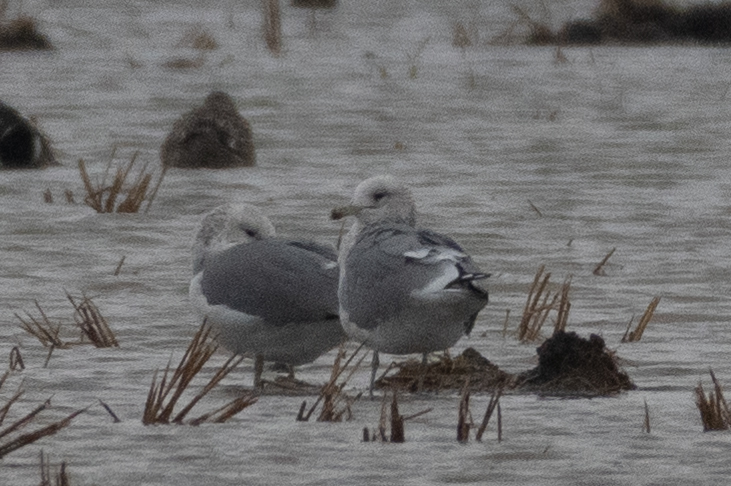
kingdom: Animalia
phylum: Chordata
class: Aves
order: Charadriiformes
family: Laridae
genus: Larus
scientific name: Larus californicus
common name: California gull
